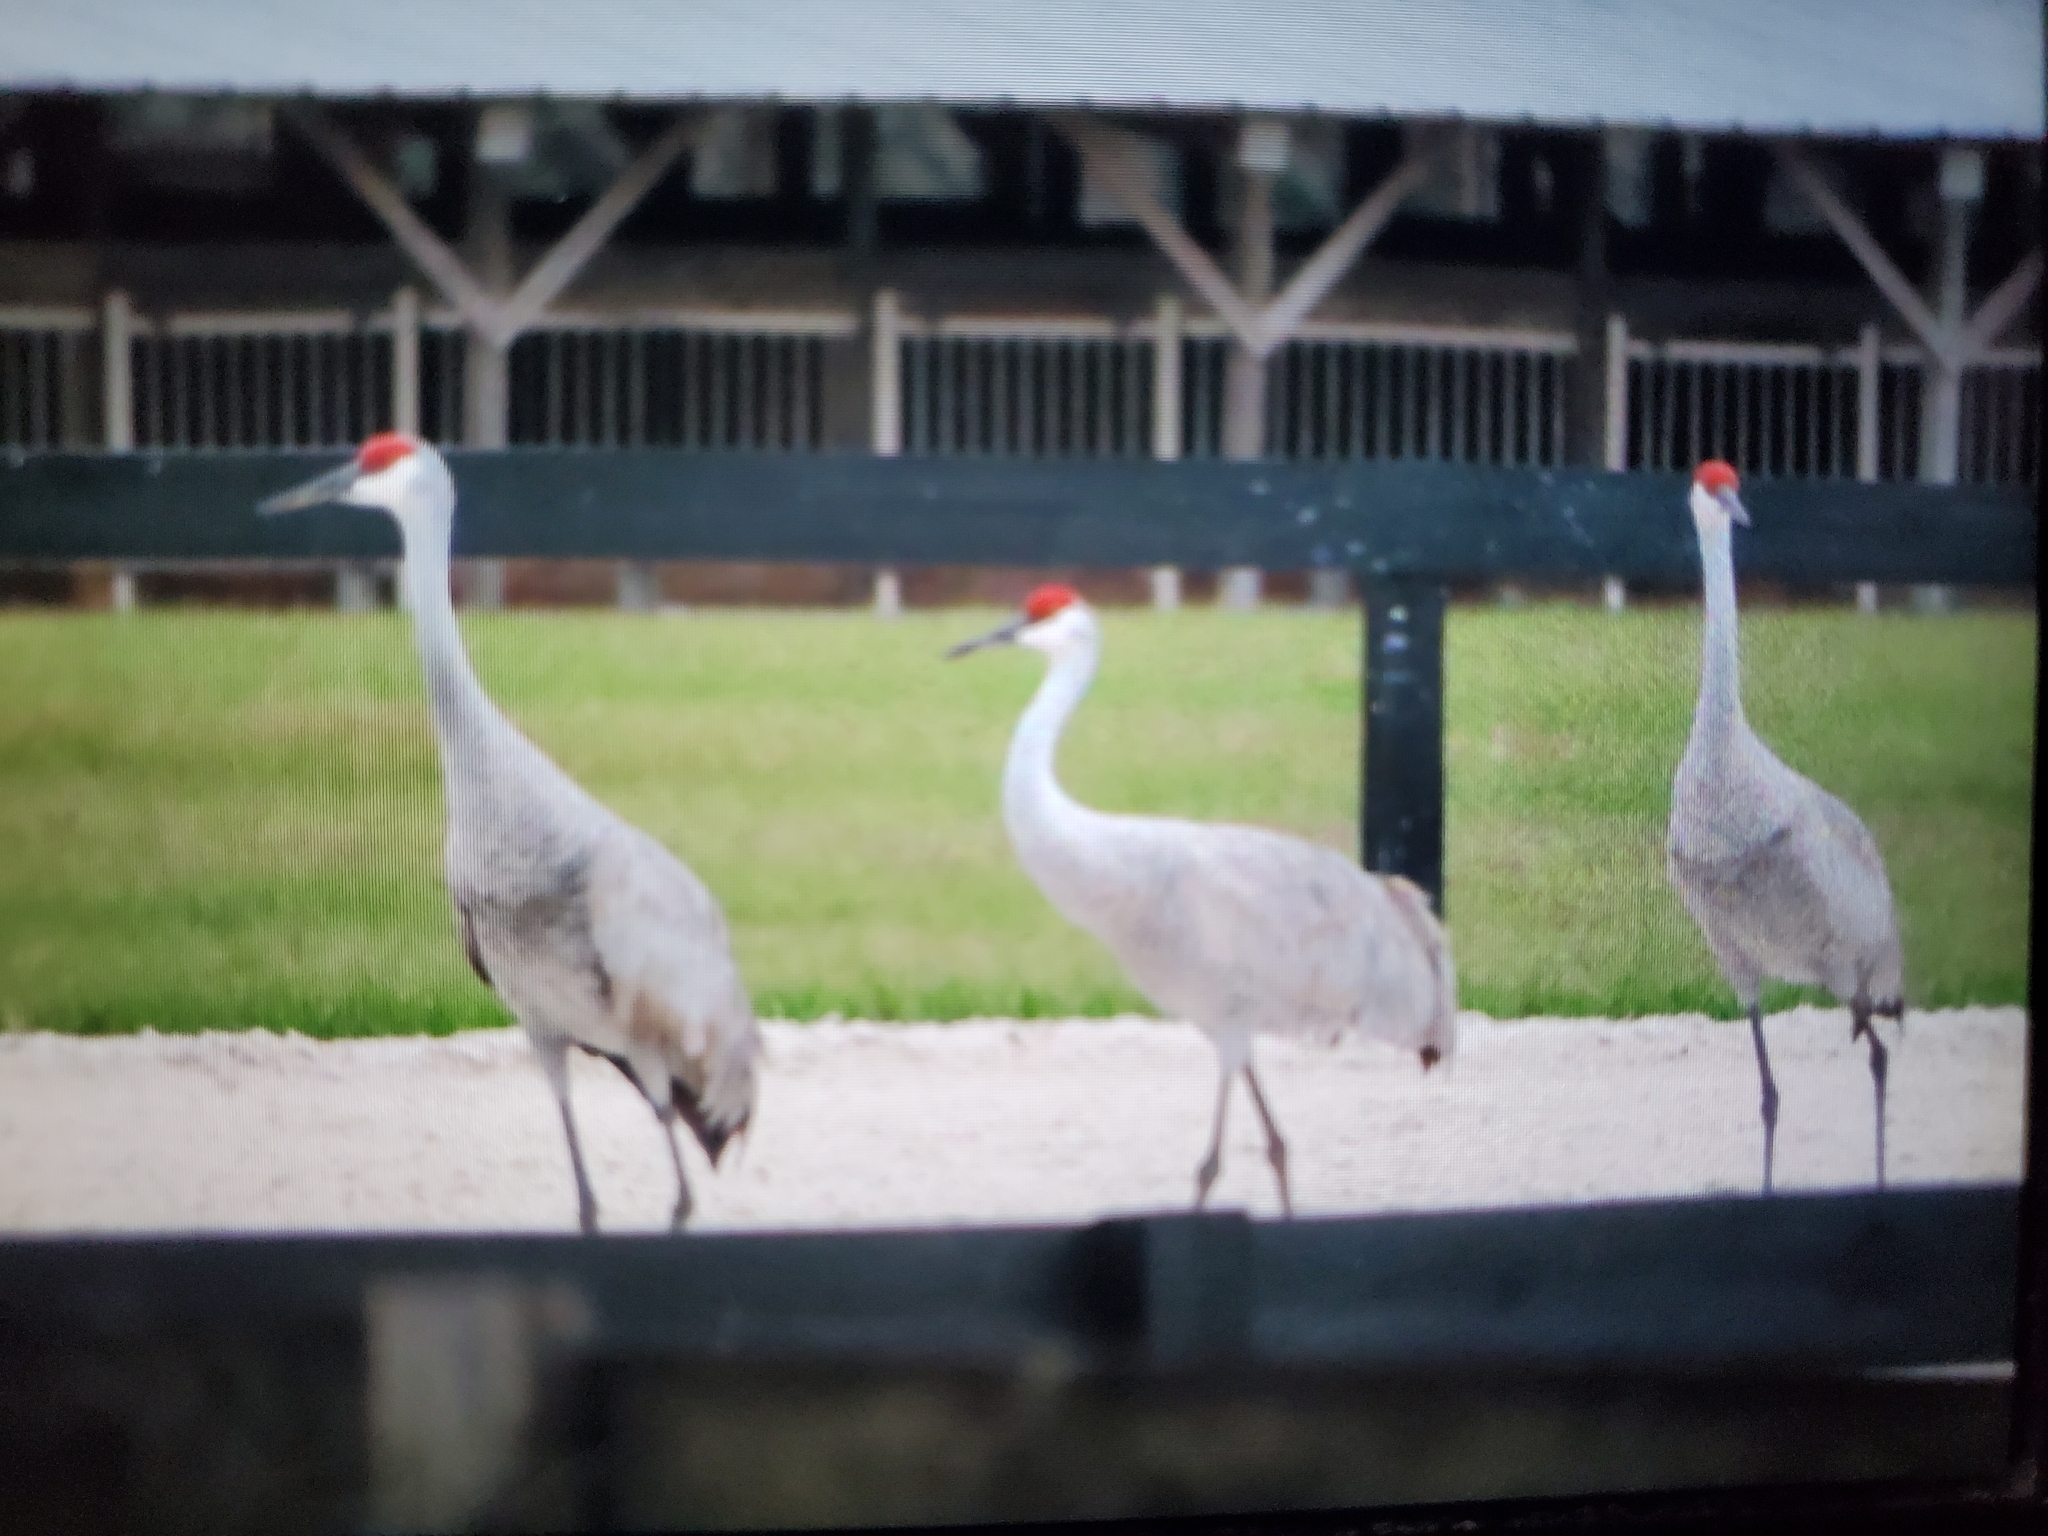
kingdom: Animalia
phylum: Chordata
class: Aves
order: Gruiformes
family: Gruidae
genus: Grus
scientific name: Grus canadensis
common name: Sandhill crane
